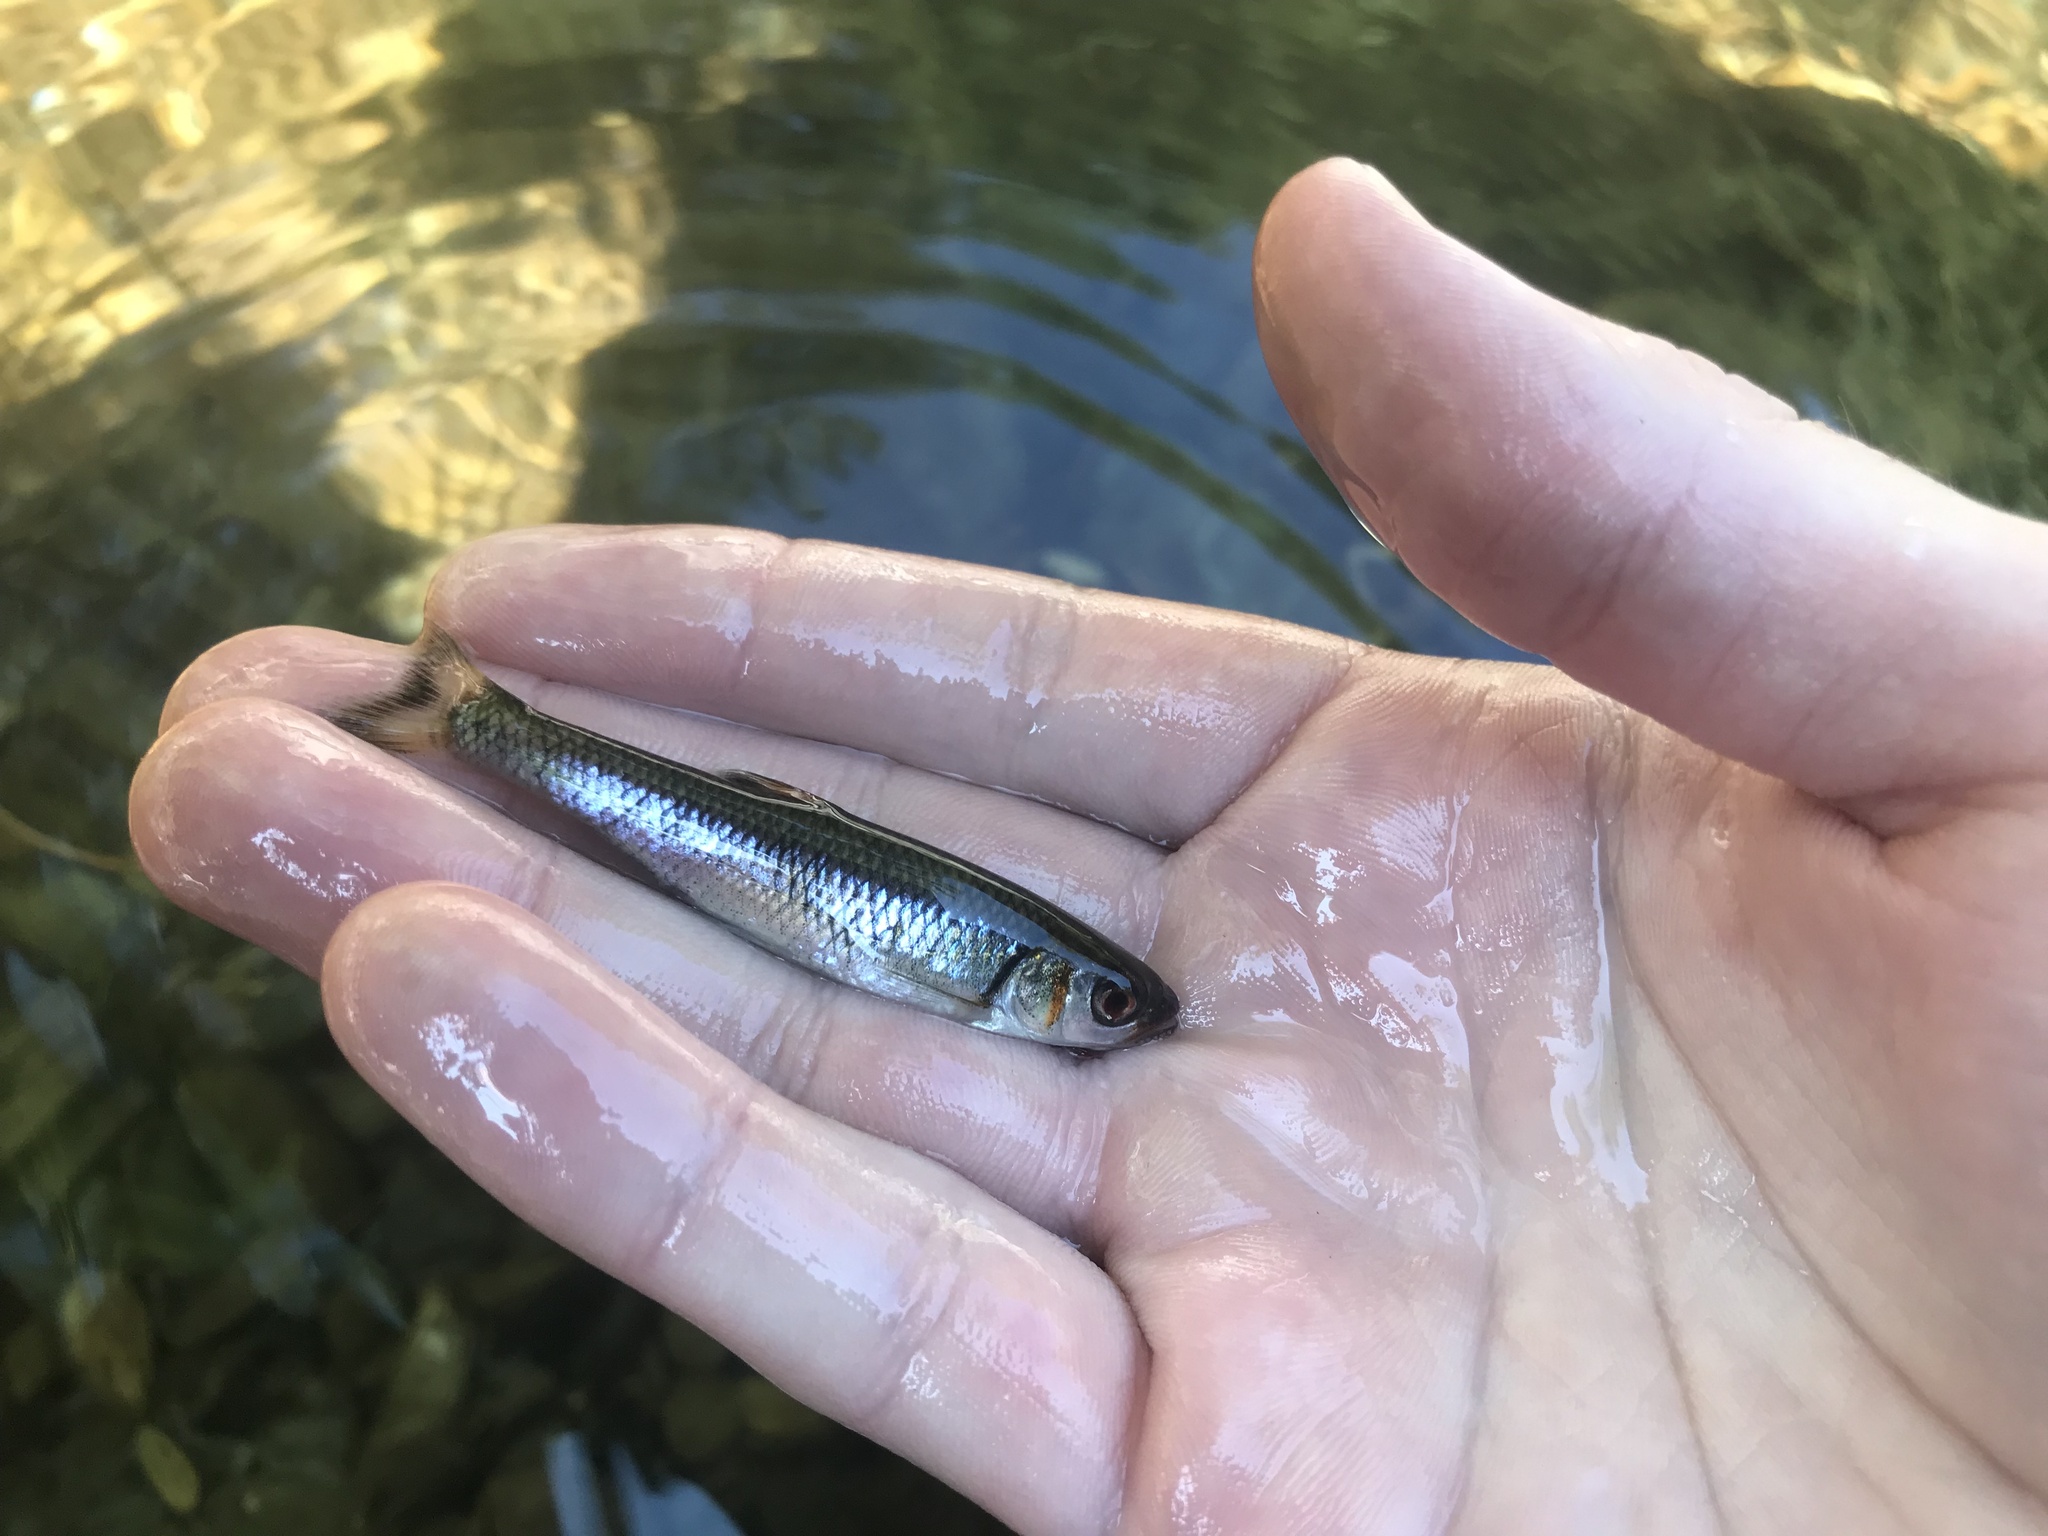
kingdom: Animalia
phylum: Chordata
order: Cypriniformes
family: Cyprinidae
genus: Luxilus
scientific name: Luxilus
